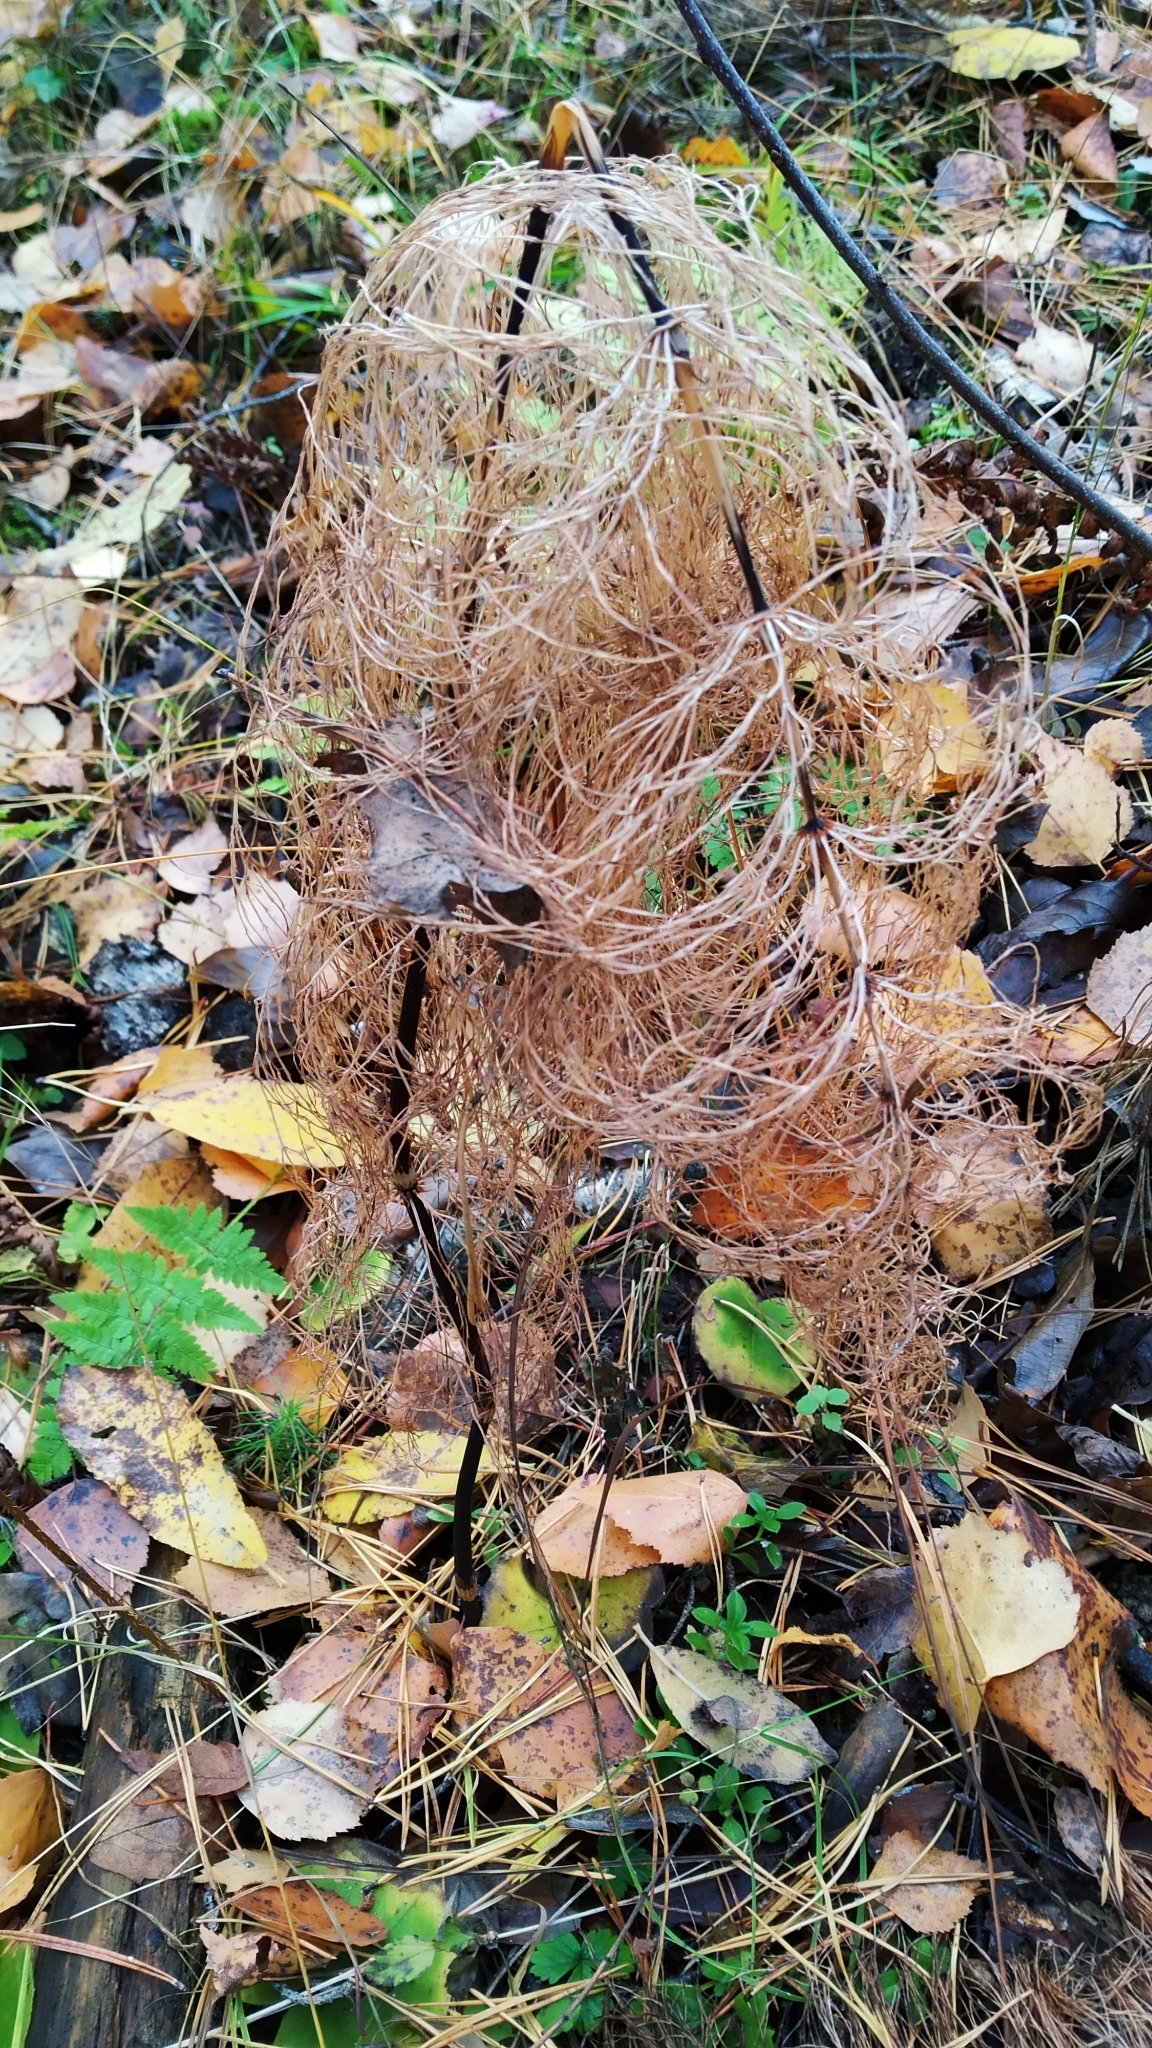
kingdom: Plantae
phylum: Tracheophyta
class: Polypodiopsida
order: Equisetales
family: Equisetaceae
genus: Equisetum
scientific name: Equisetum sylvaticum
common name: Wood horsetail
